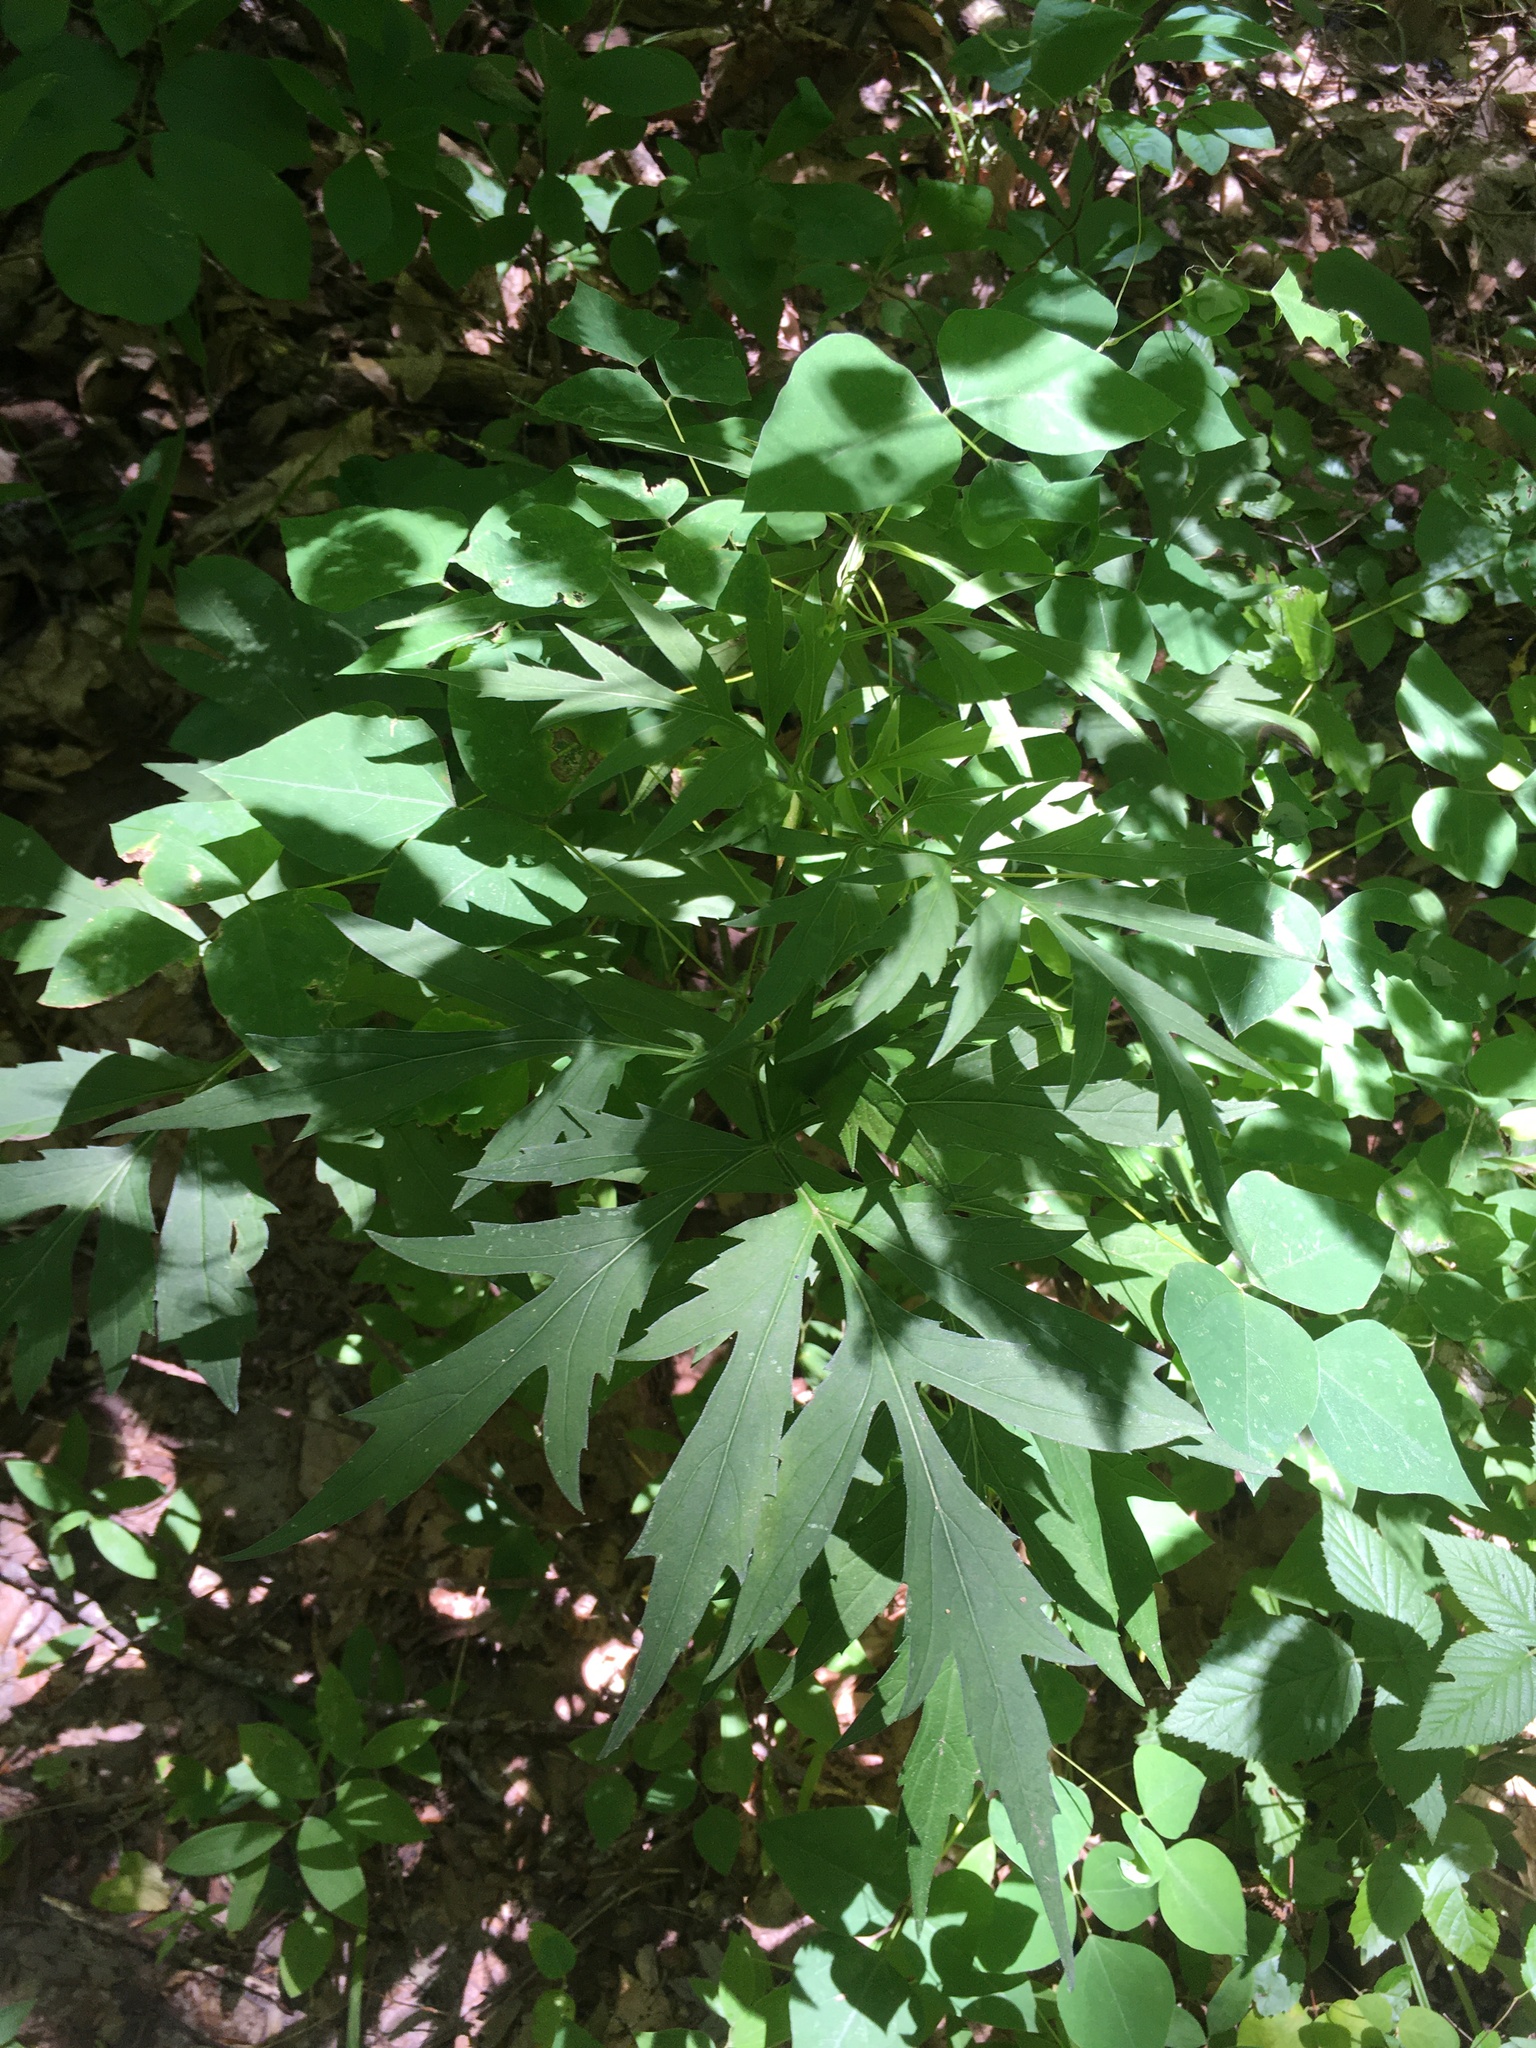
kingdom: Plantae
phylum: Tracheophyta
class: Magnoliopsida
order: Asterales
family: Asteraceae
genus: Rudbeckia
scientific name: Rudbeckia laciniata
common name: Coneflower
